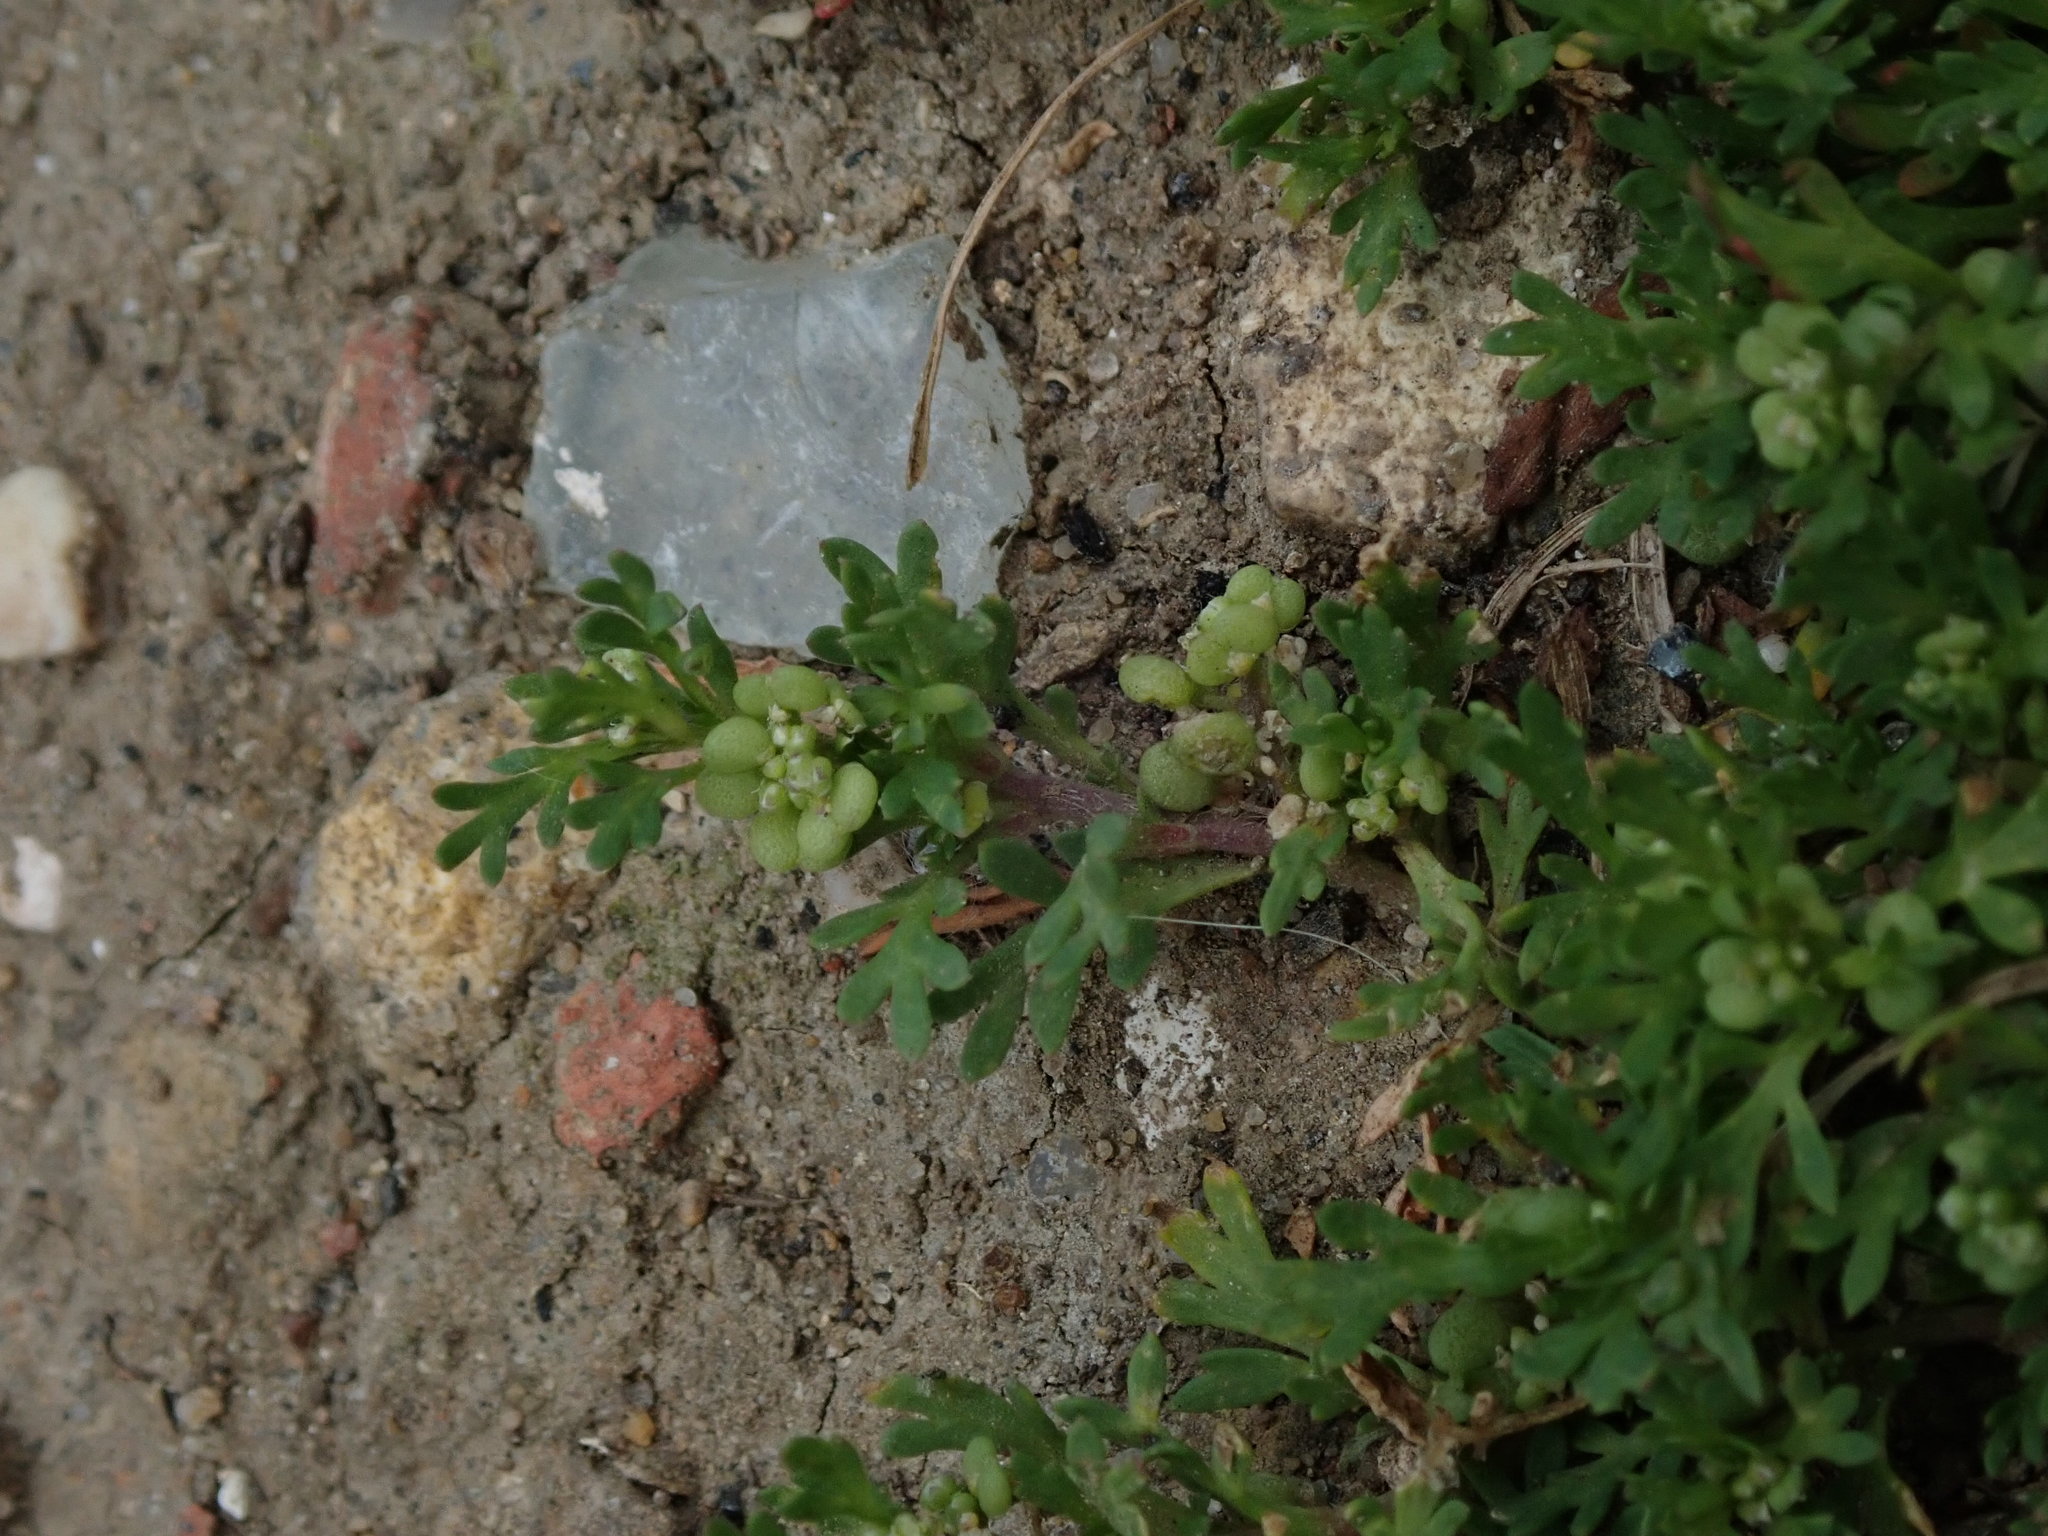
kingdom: Plantae
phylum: Tracheophyta
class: Magnoliopsida
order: Brassicales
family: Brassicaceae
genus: Lepidium
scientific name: Lepidium didymum
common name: Lesser swinecress
